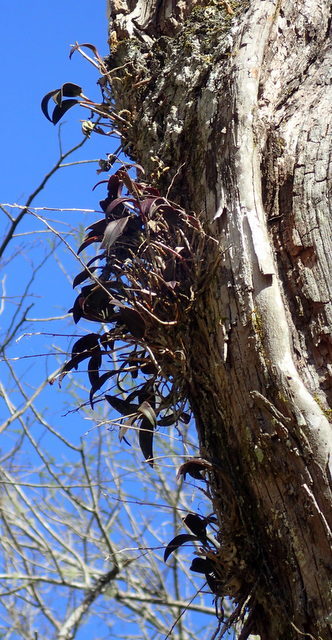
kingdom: Plantae
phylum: Tracheophyta
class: Liliopsida
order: Asparagales
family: Orchidaceae
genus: Epidendrum
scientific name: Epidendrum conopseum
